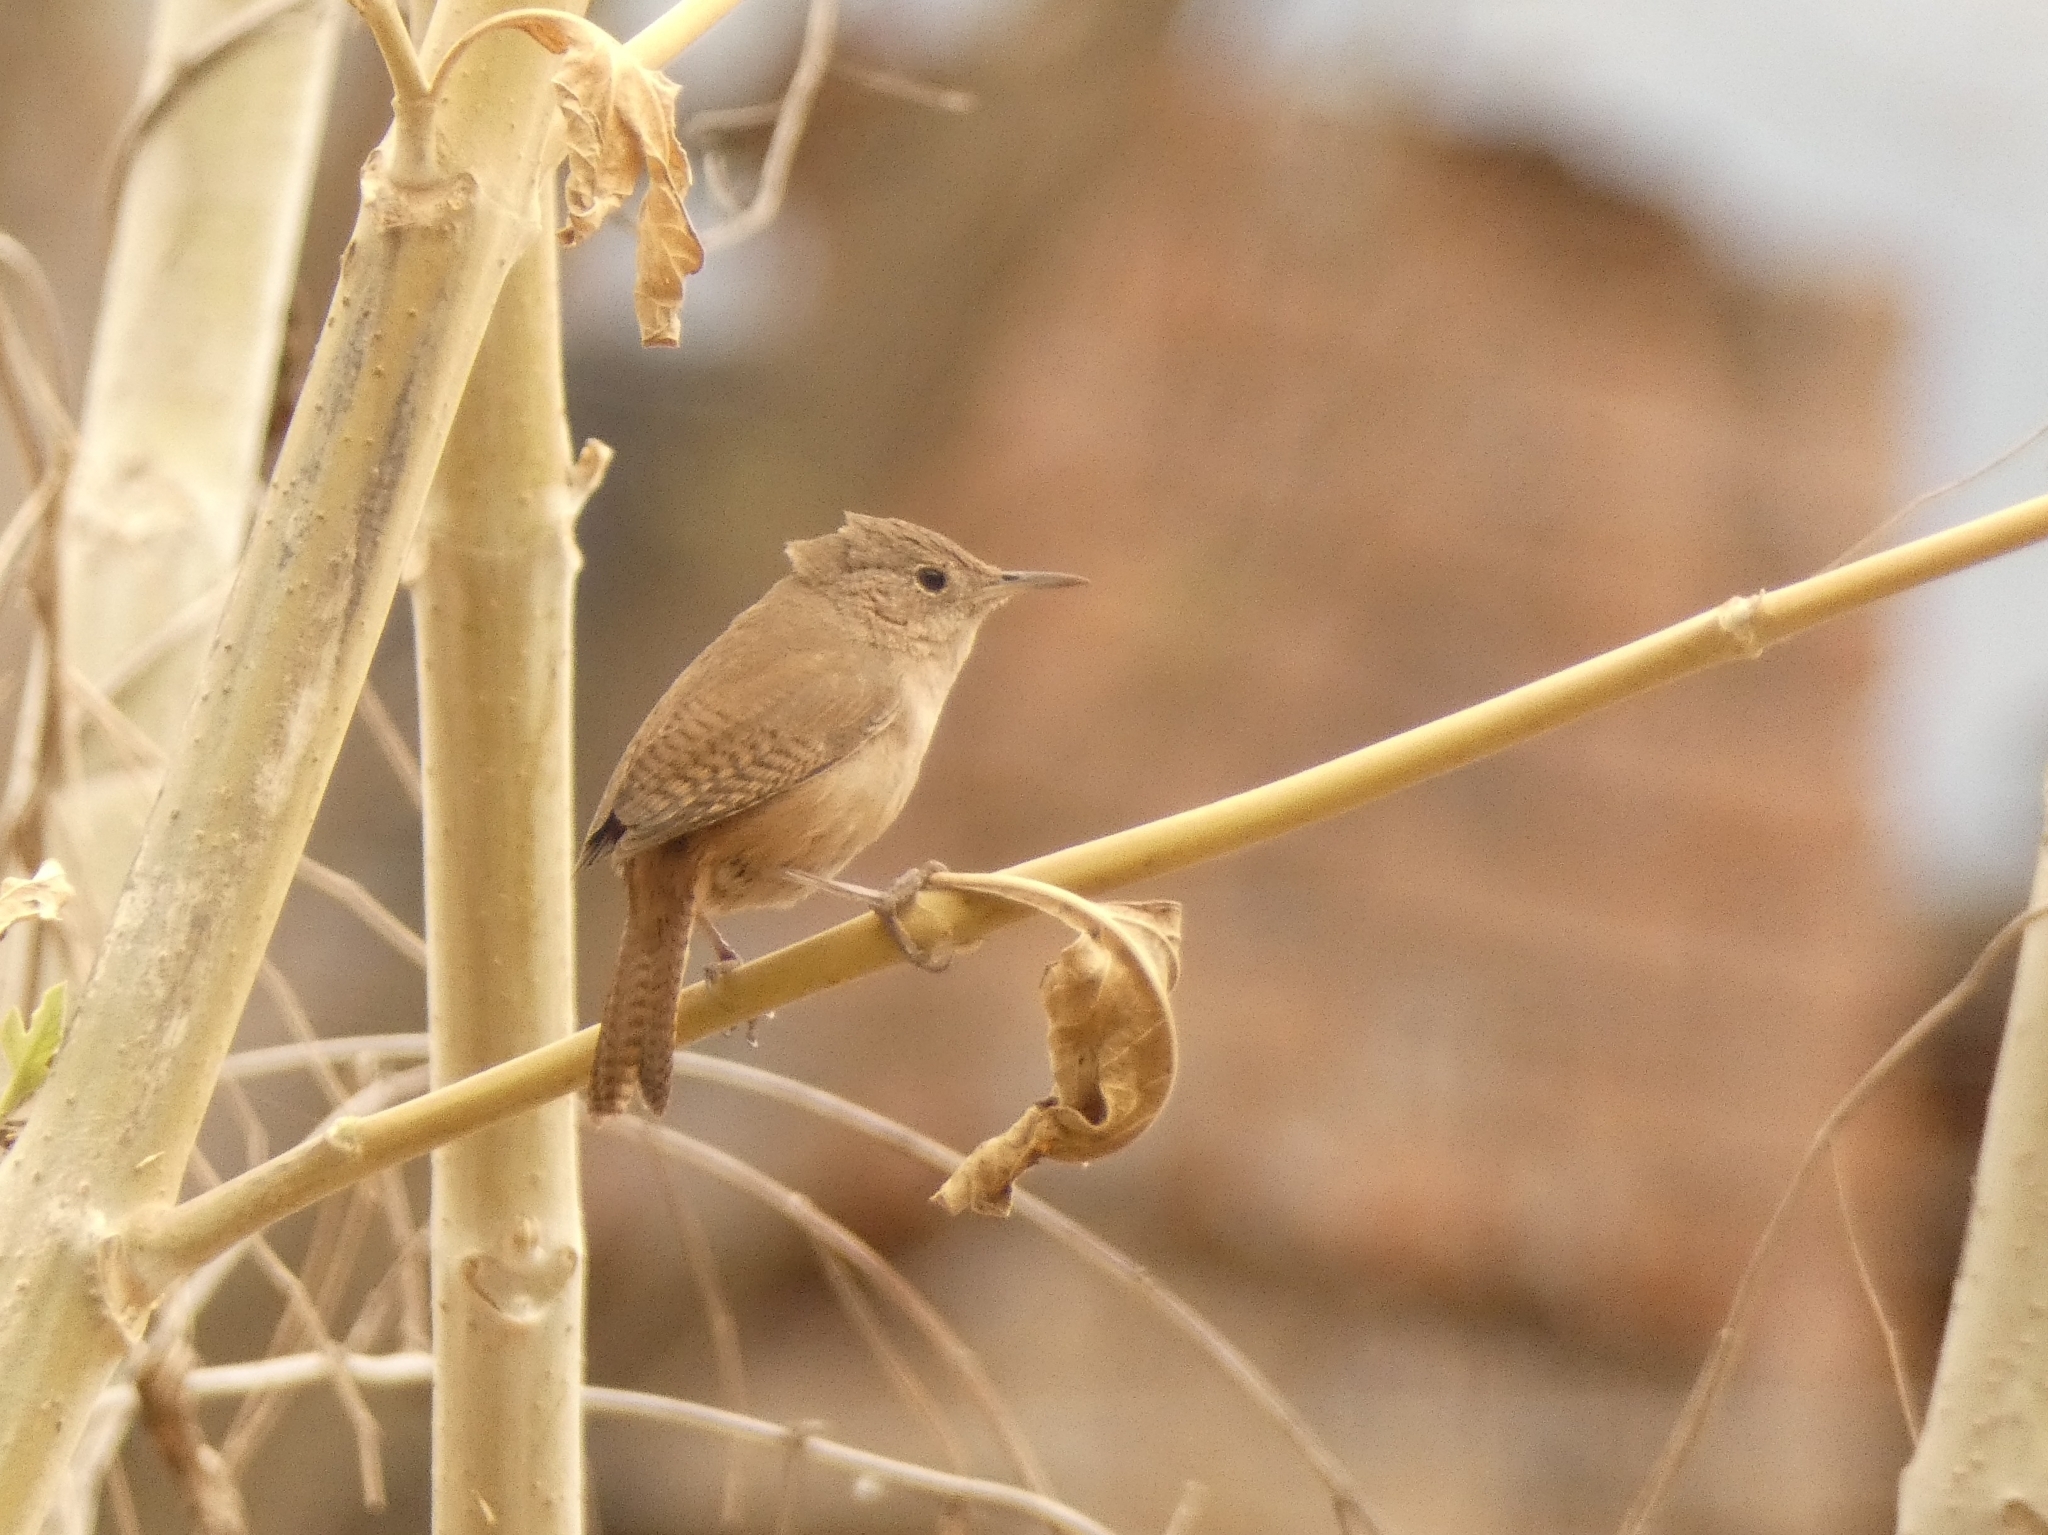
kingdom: Animalia
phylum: Chordata
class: Aves
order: Passeriformes
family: Troglodytidae
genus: Troglodytes
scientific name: Troglodytes aedon
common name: House wren
